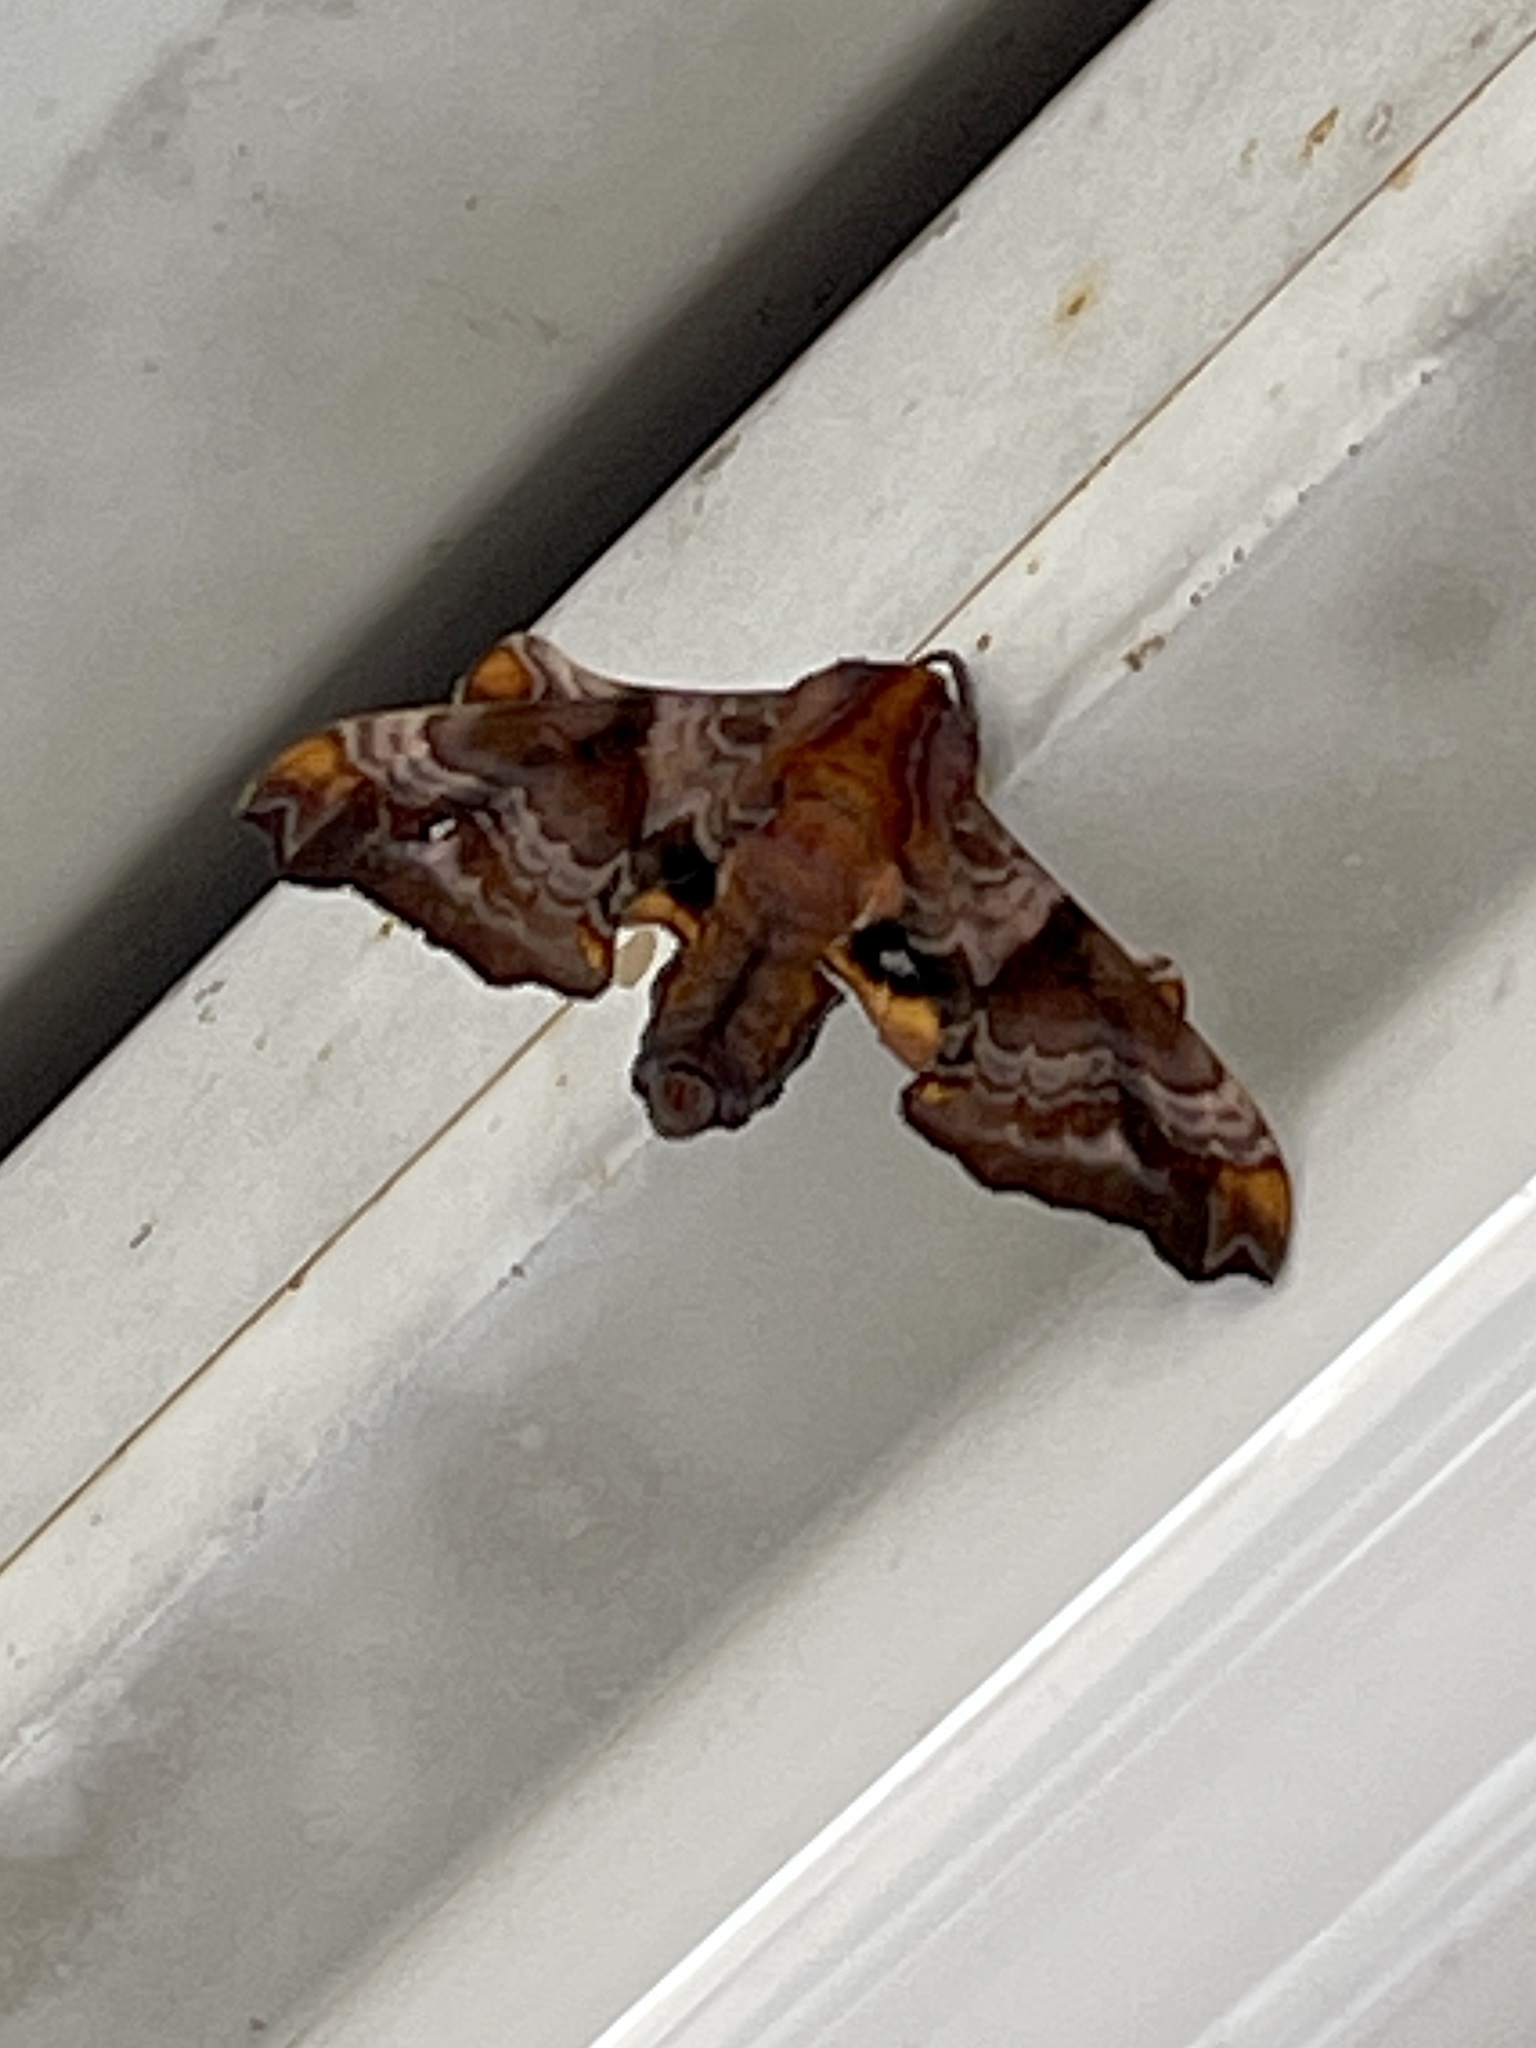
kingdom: Animalia
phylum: Arthropoda
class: Insecta
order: Lepidoptera
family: Sphingidae
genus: Paonias
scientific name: Paonias myops
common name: Small-eyed sphinx
